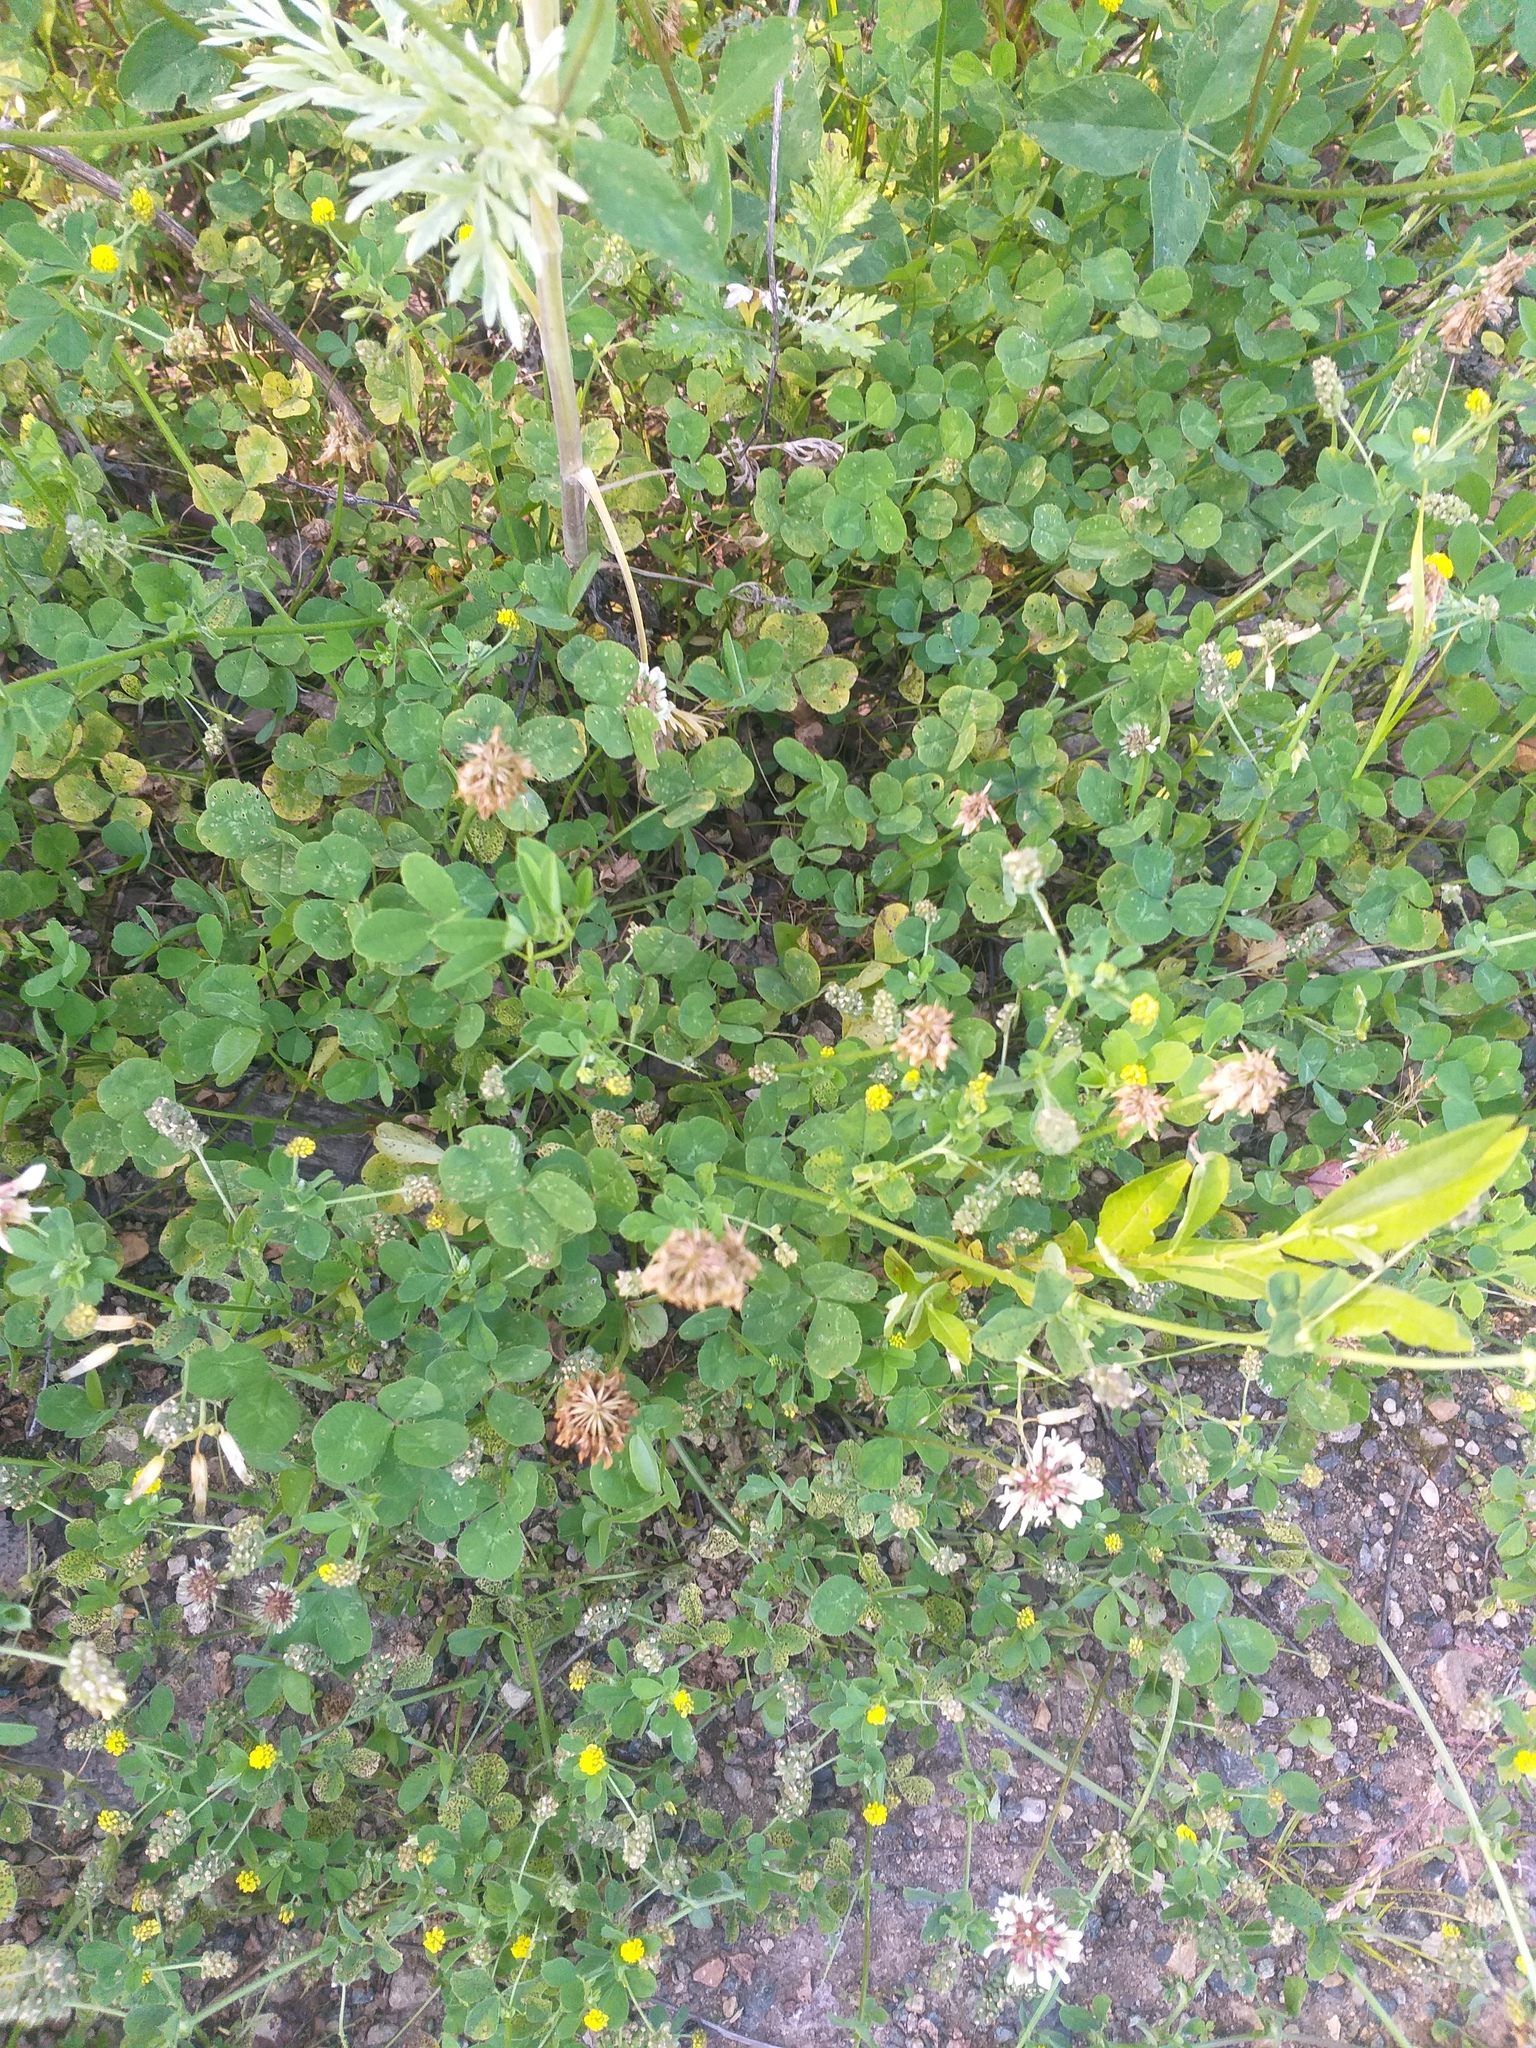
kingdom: Plantae
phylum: Tracheophyta
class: Magnoliopsida
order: Fabales
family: Fabaceae
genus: Trifolium
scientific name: Trifolium repens
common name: White clover
